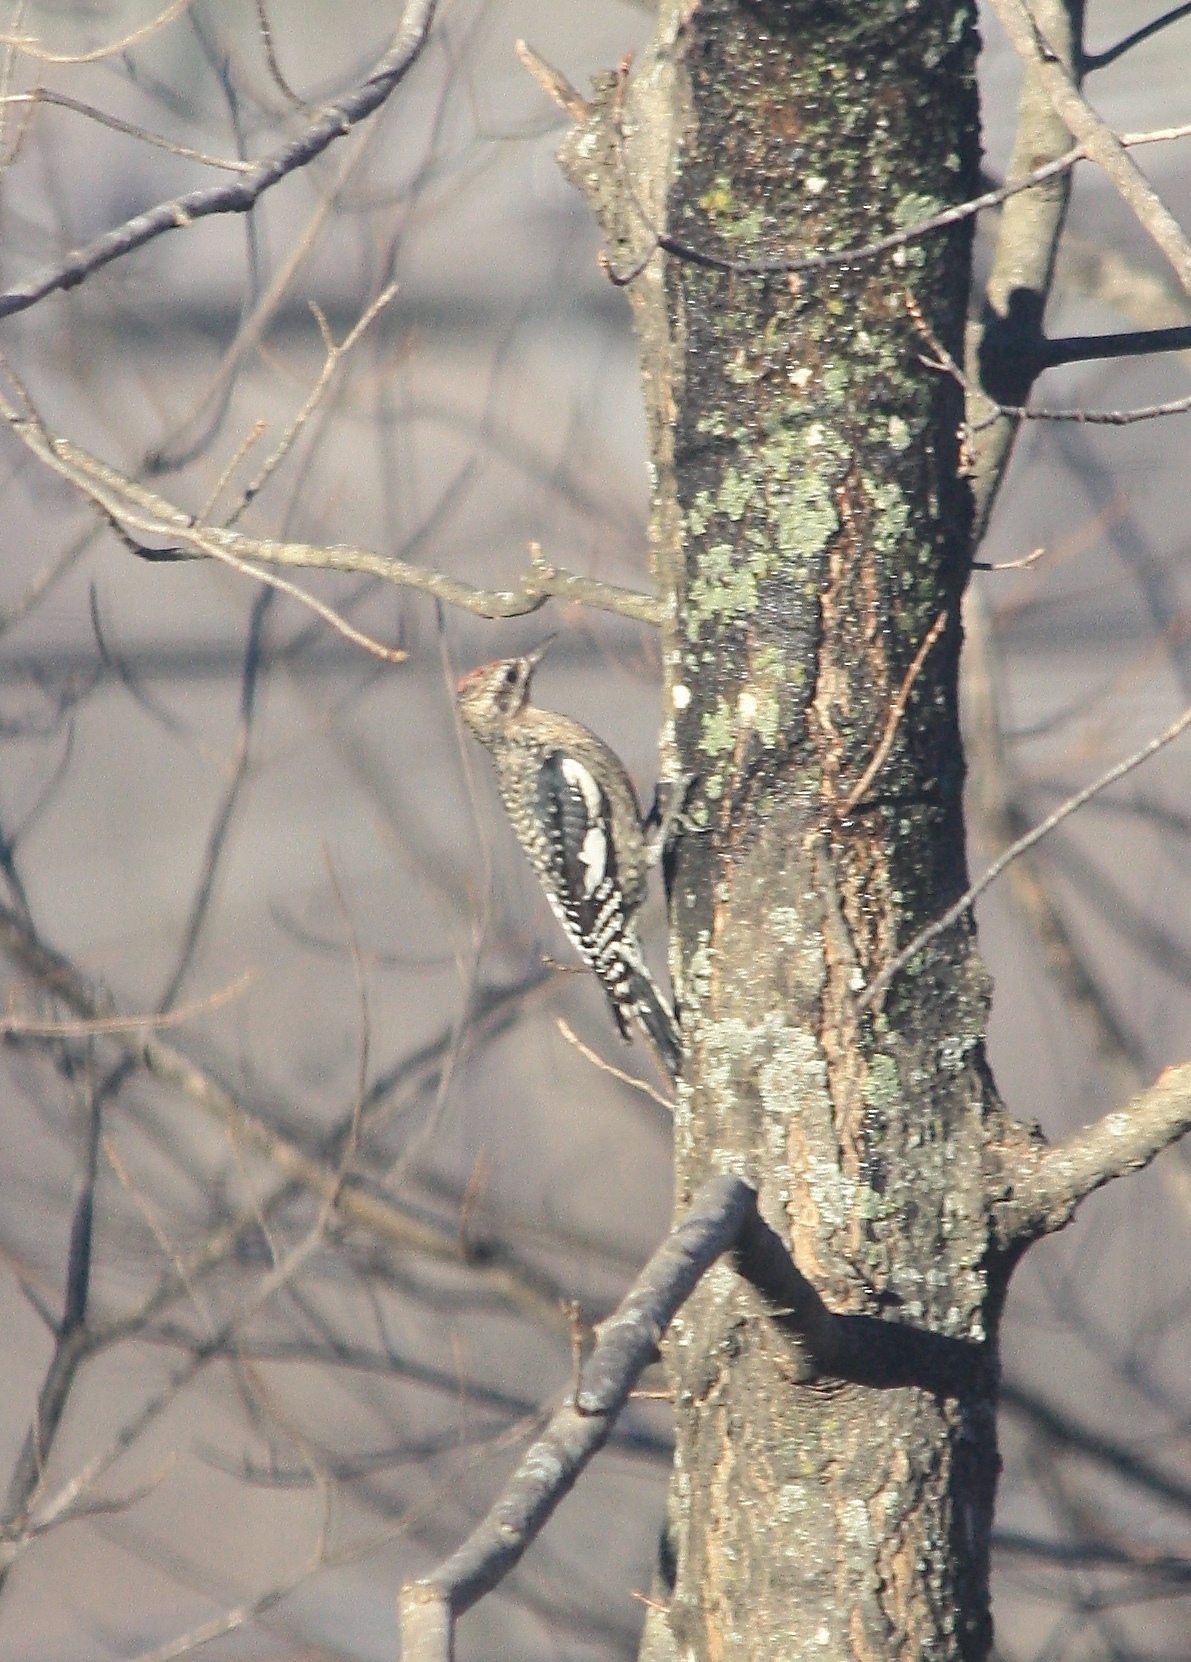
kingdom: Animalia
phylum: Chordata
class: Aves
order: Piciformes
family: Picidae
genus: Sphyrapicus
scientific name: Sphyrapicus varius
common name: Yellow-bellied sapsucker
